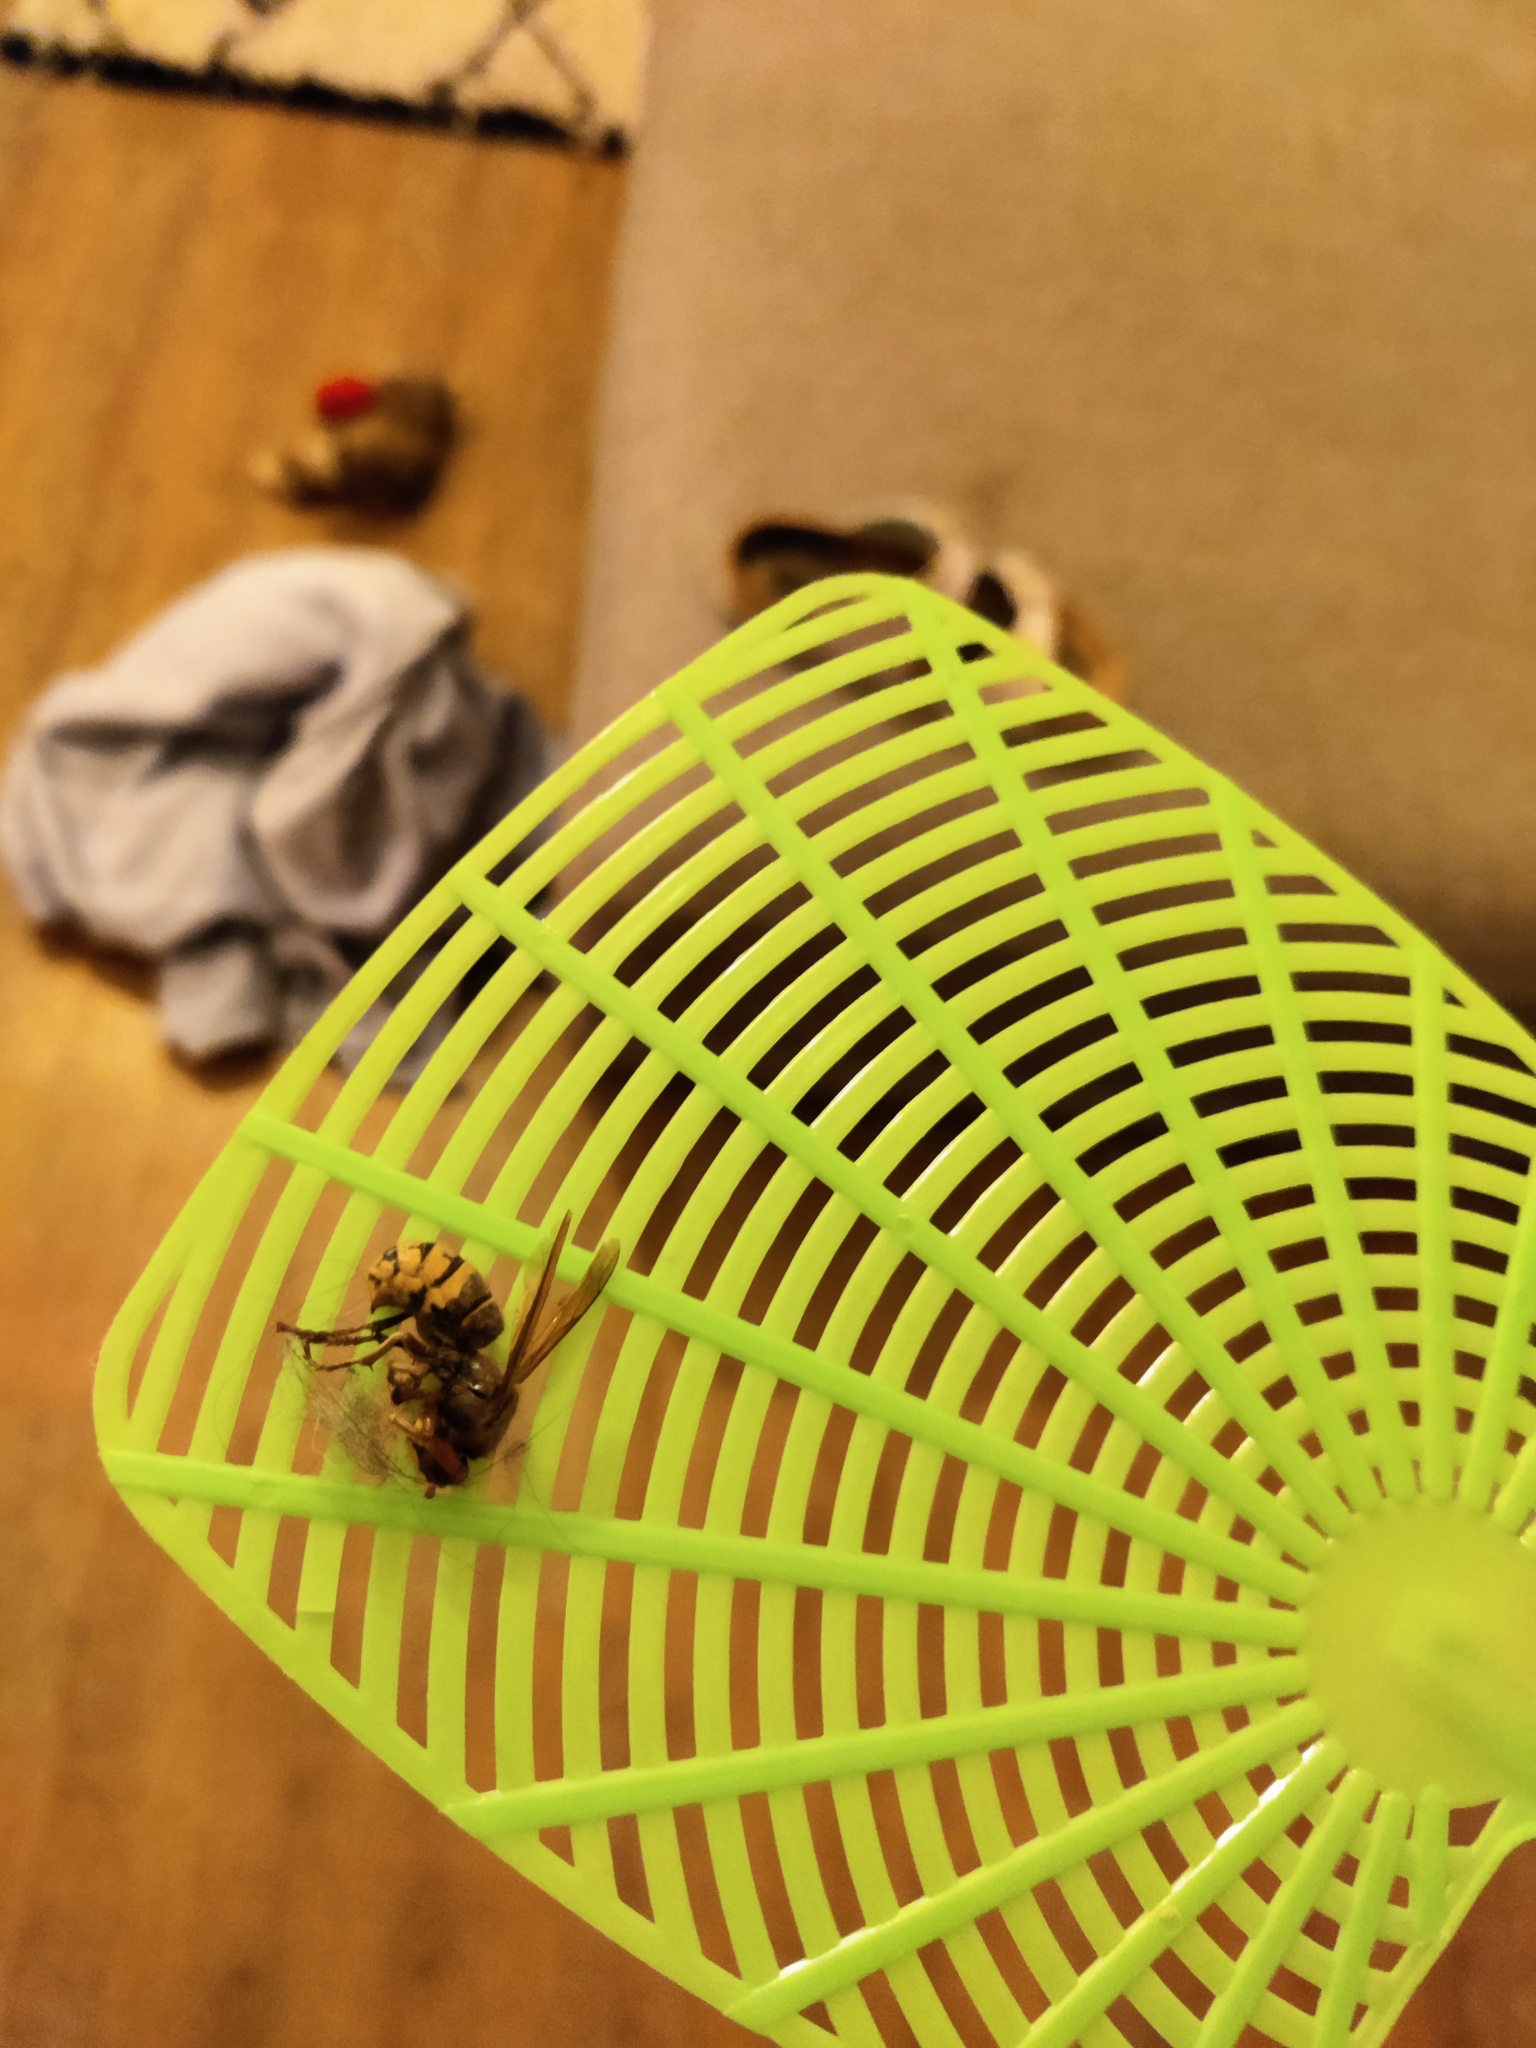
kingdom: Animalia
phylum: Arthropoda
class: Insecta
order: Hymenoptera
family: Vespidae
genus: Vespa
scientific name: Vespa crabro
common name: Hornet
